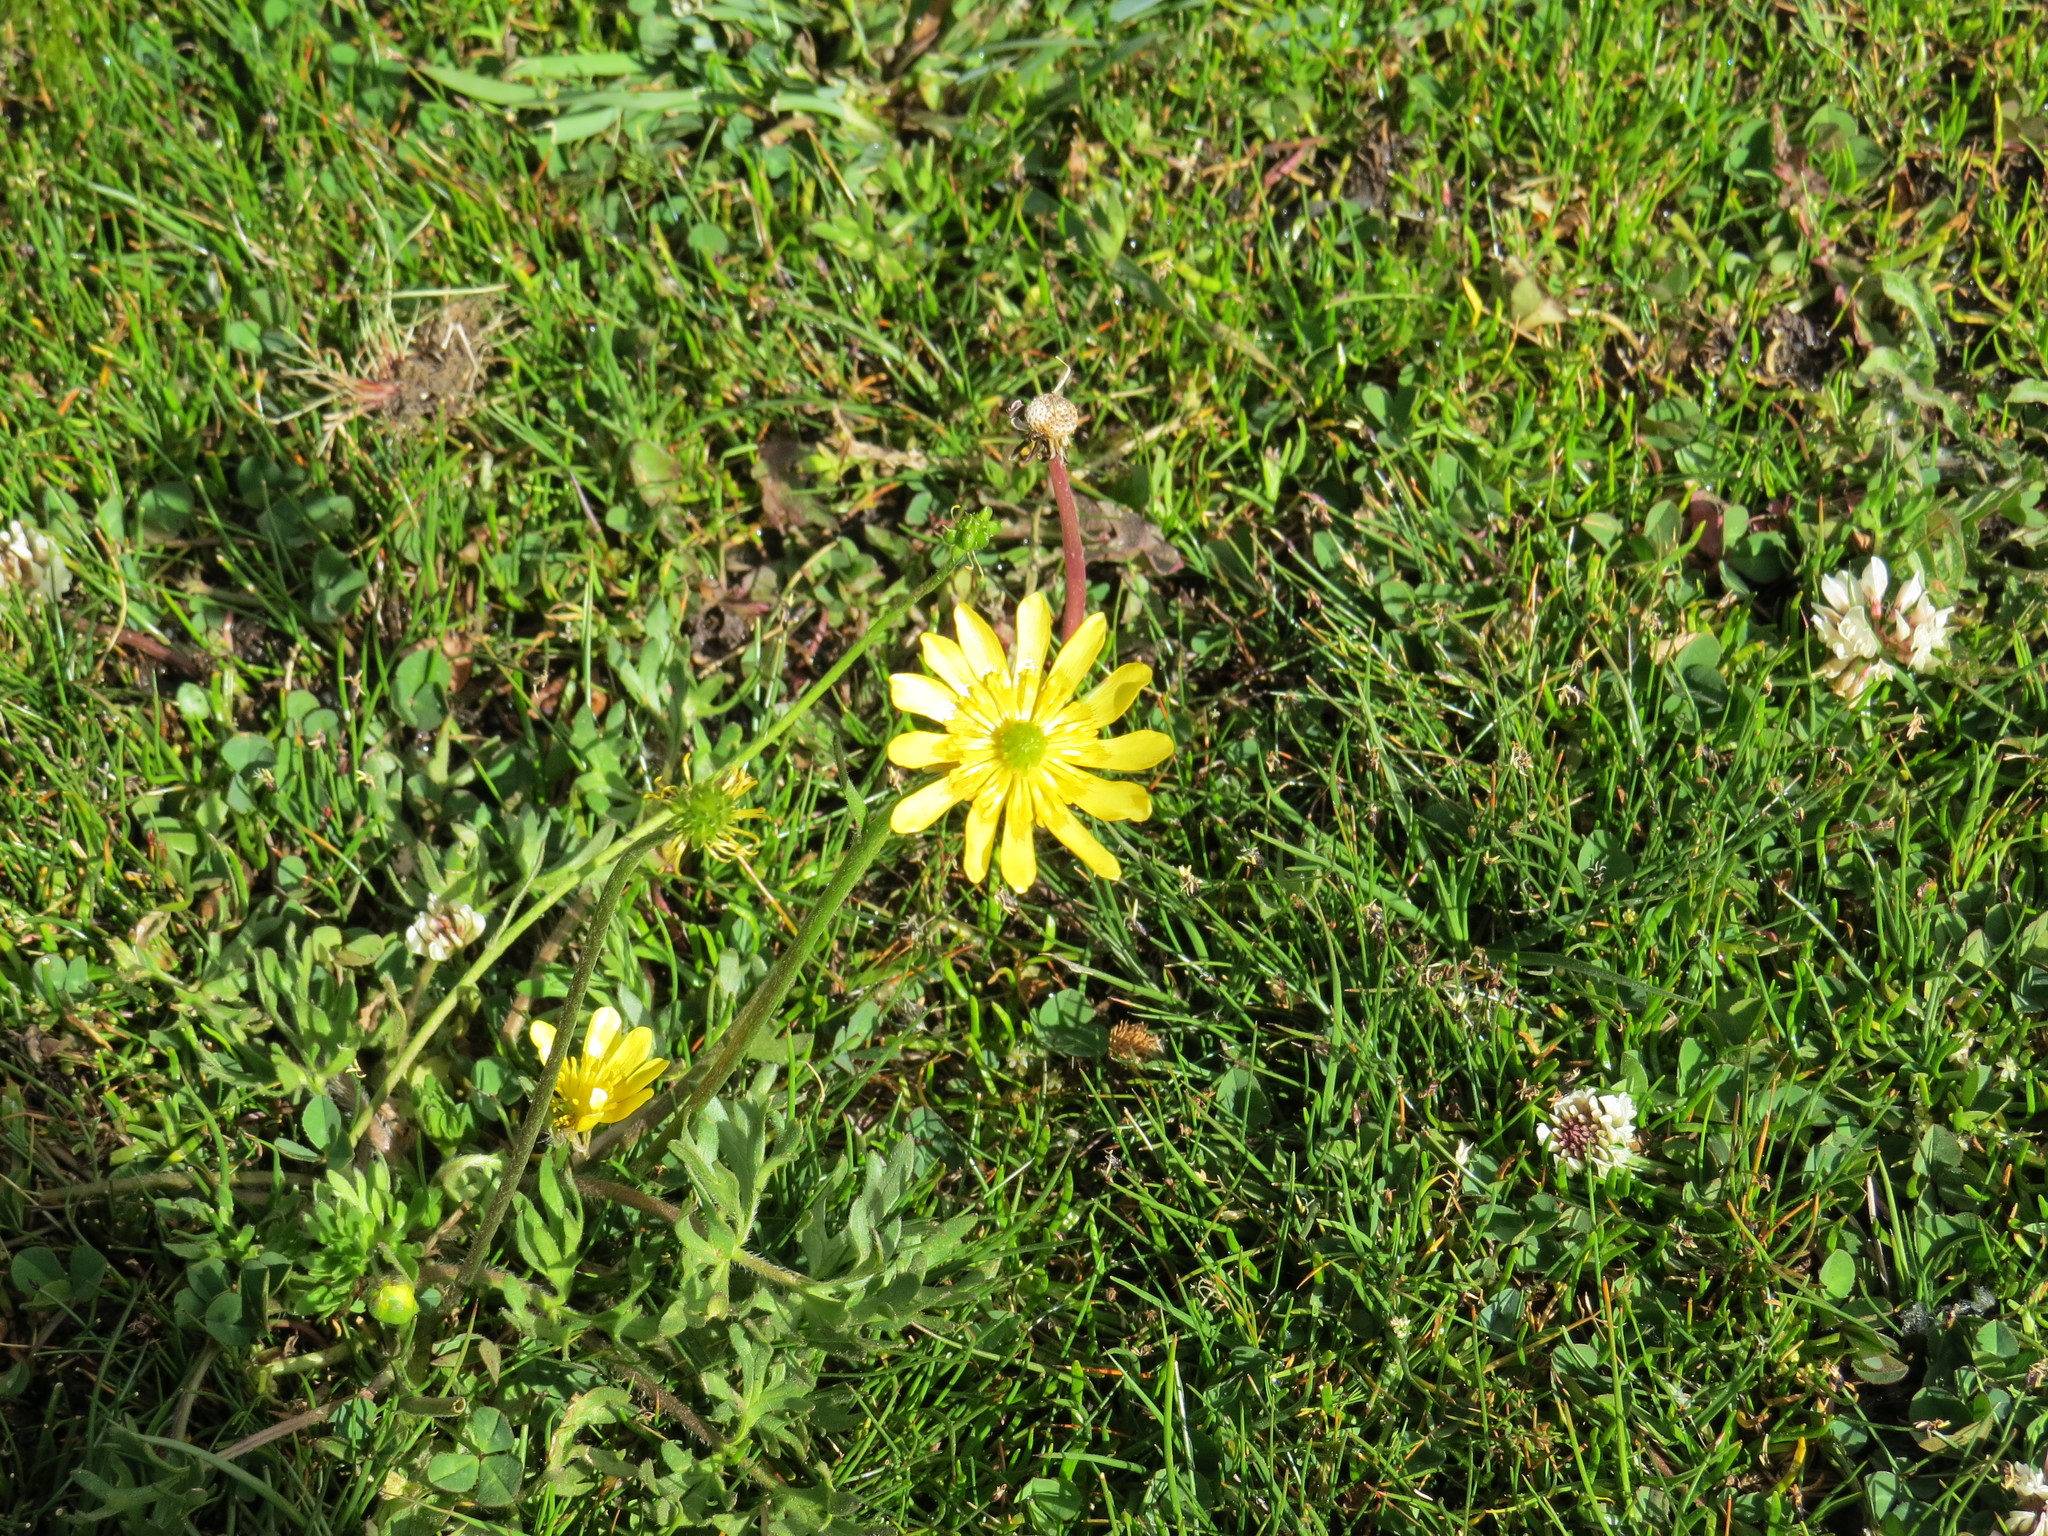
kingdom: Plantae
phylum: Tracheophyta
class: Magnoliopsida
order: Ranunculales
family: Ranunculaceae
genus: Ranunculus
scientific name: Ranunculus peduncularis
